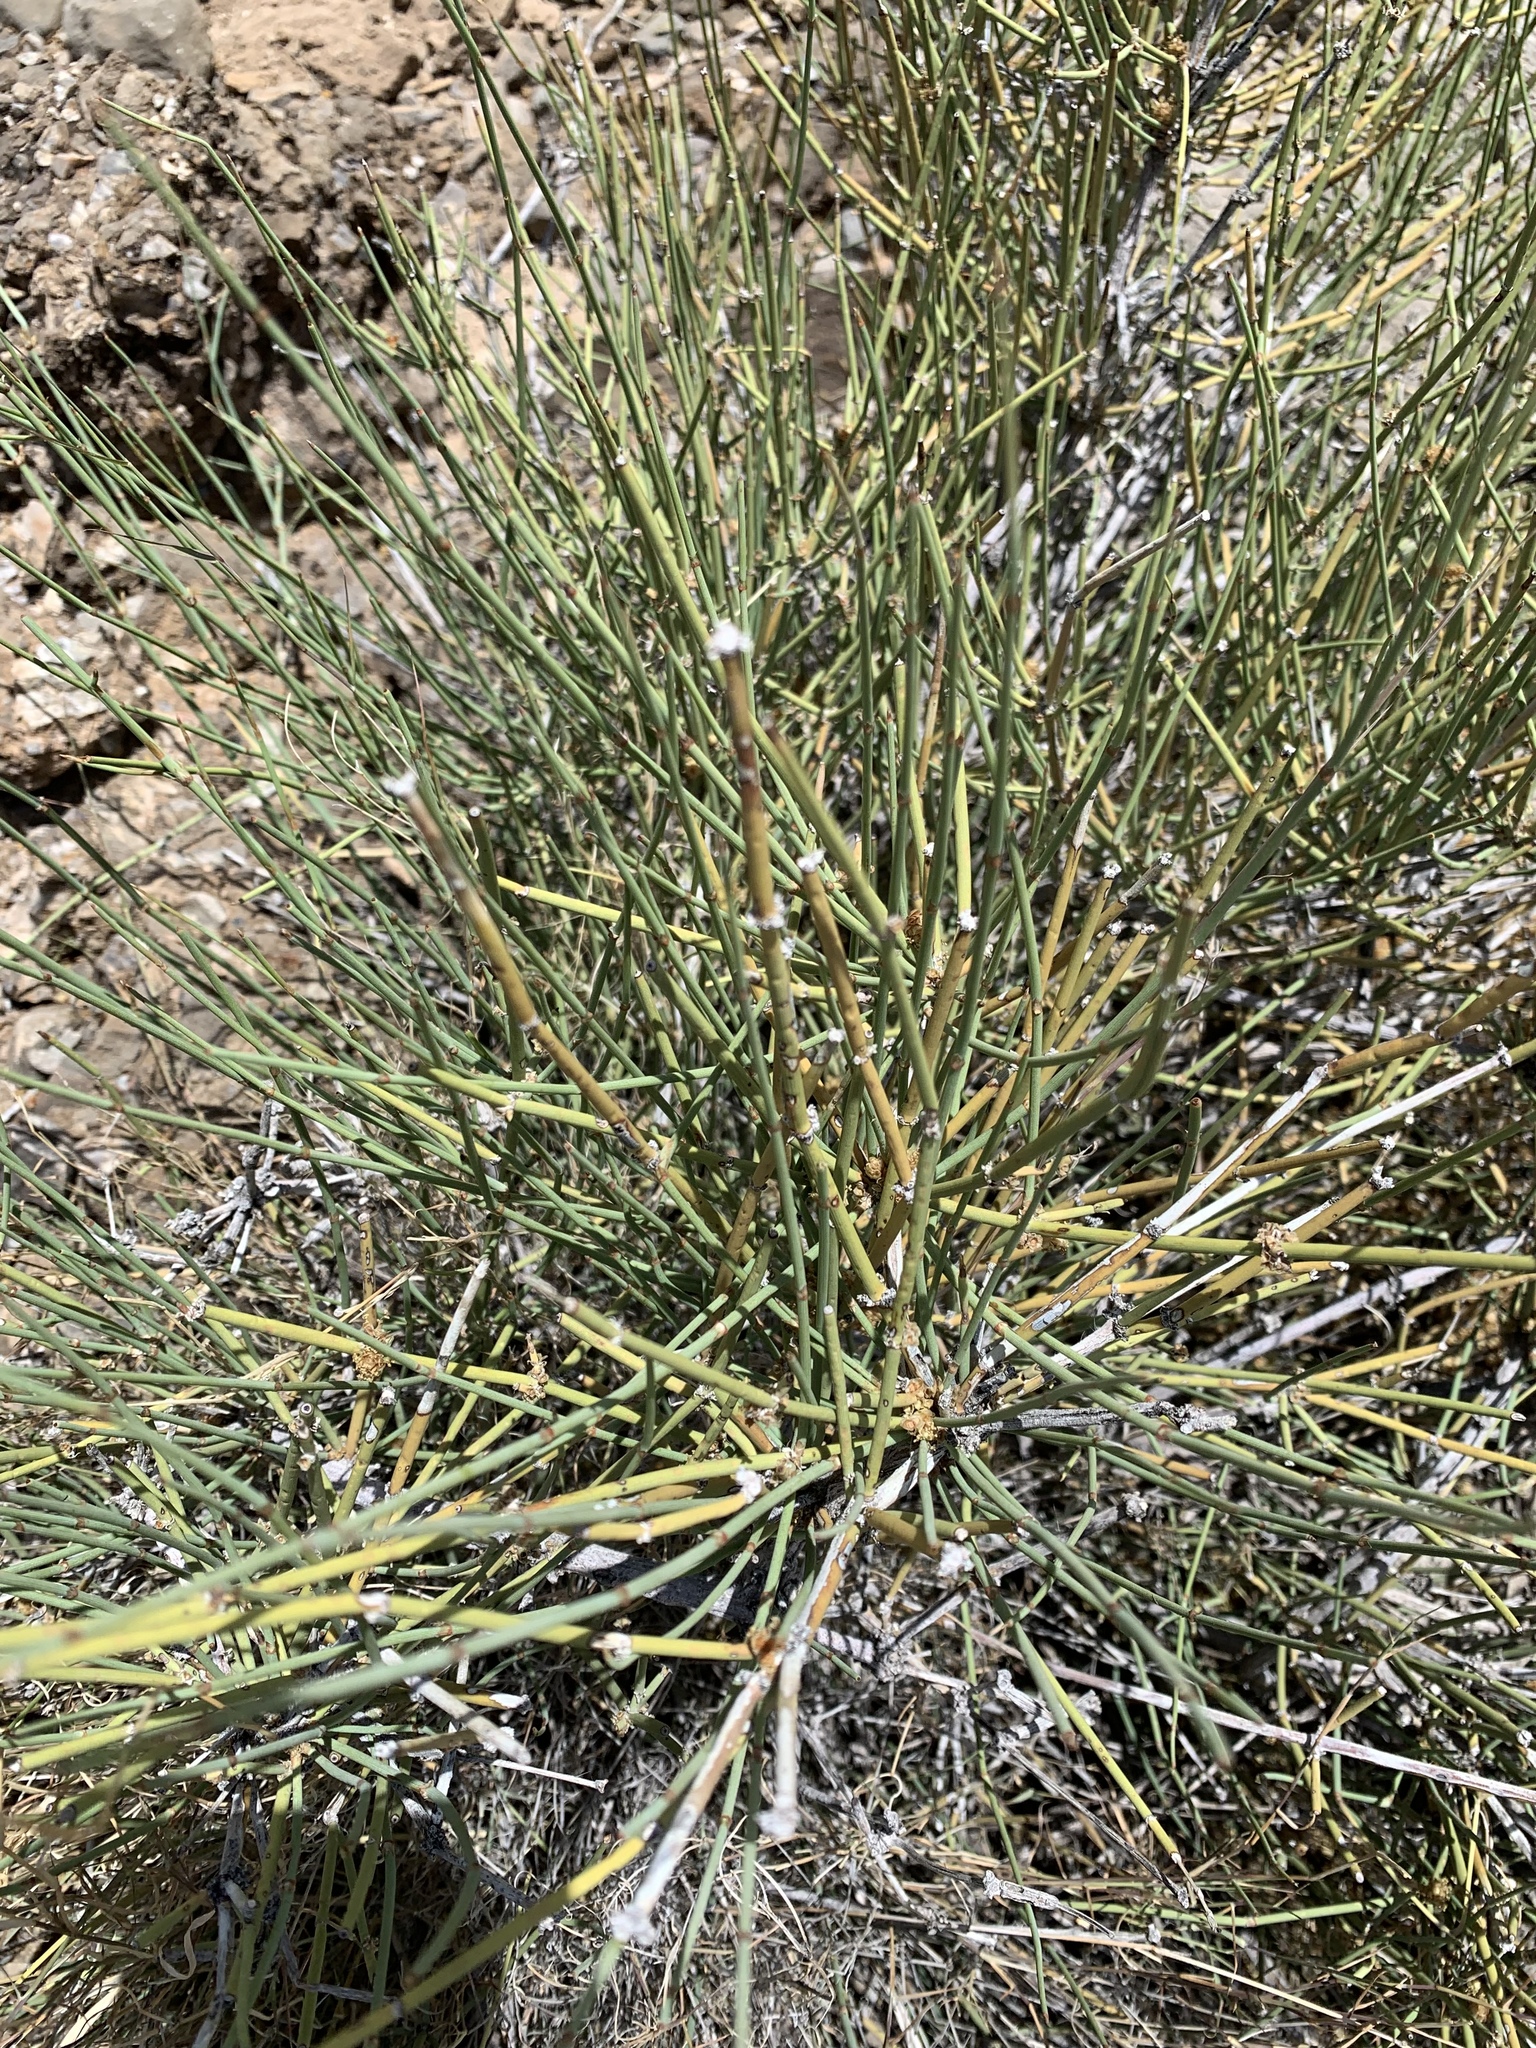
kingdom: Plantae
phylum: Tracheophyta
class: Gnetopsida
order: Ephedrales
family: Ephedraceae
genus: Ephedra
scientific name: Ephedra trifurca
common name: Mexican-tea
